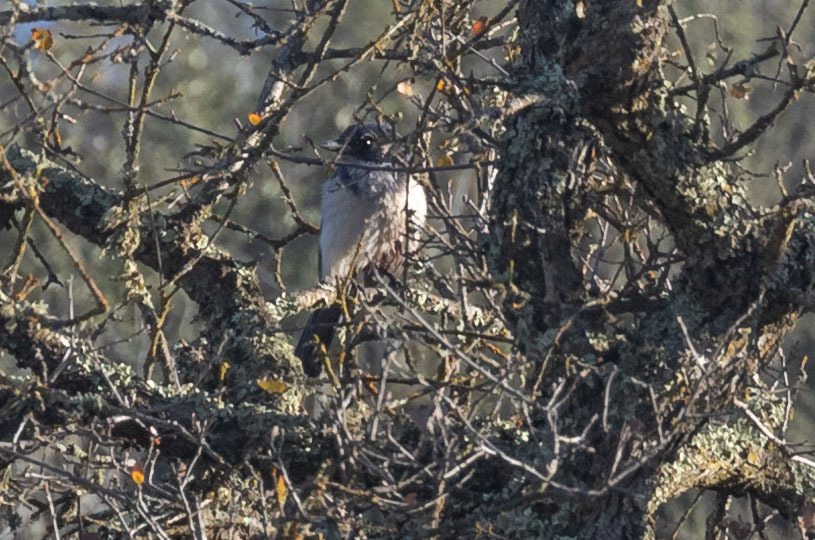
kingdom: Animalia
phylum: Chordata
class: Aves
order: Passeriformes
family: Corvidae
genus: Aphelocoma
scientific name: Aphelocoma californica
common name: California scrub-jay
